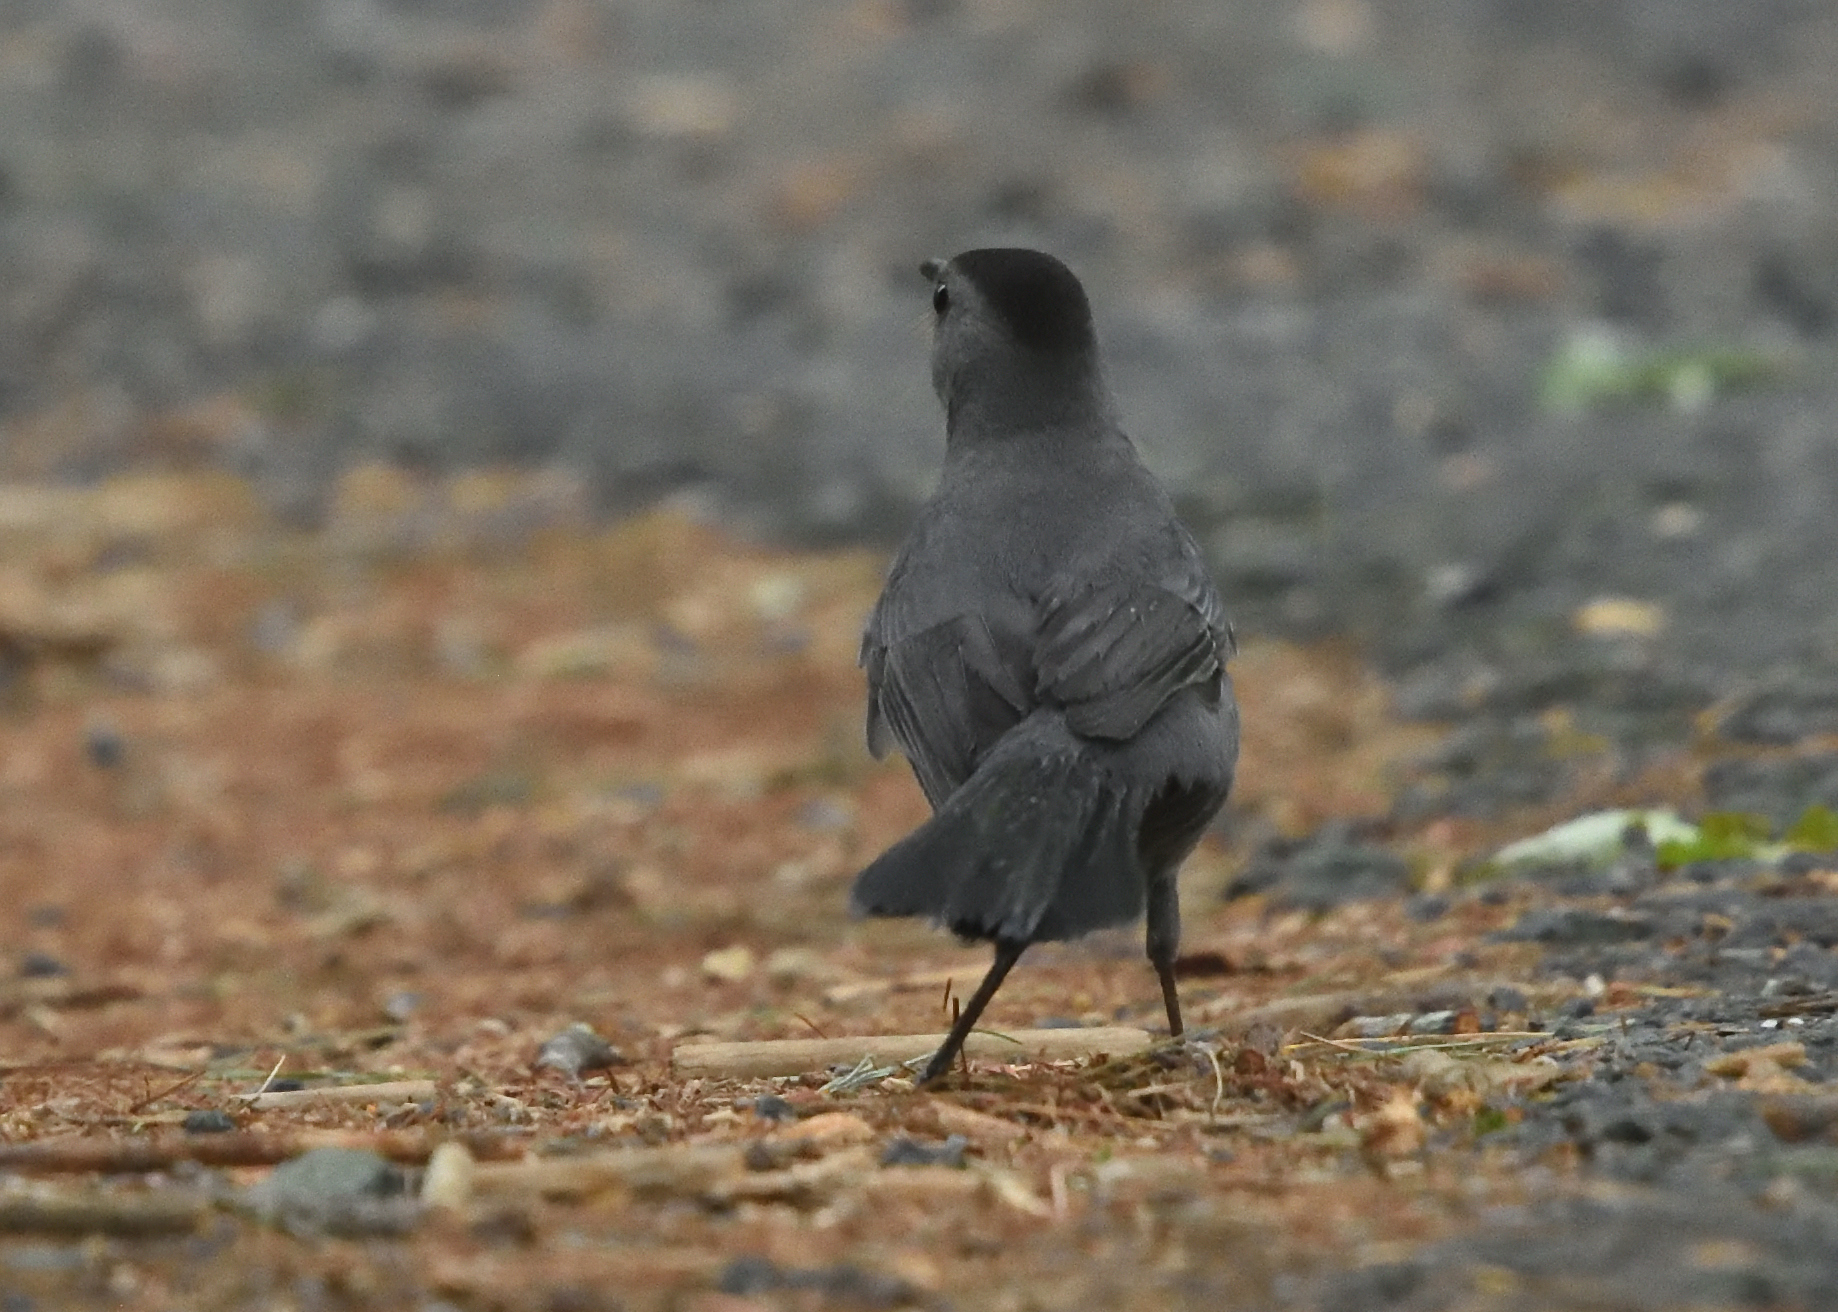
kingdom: Animalia
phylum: Chordata
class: Aves
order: Passeriformes
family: Mimidae
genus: Dumetella
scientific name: Dumetella carolinensis
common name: Gray catbird
